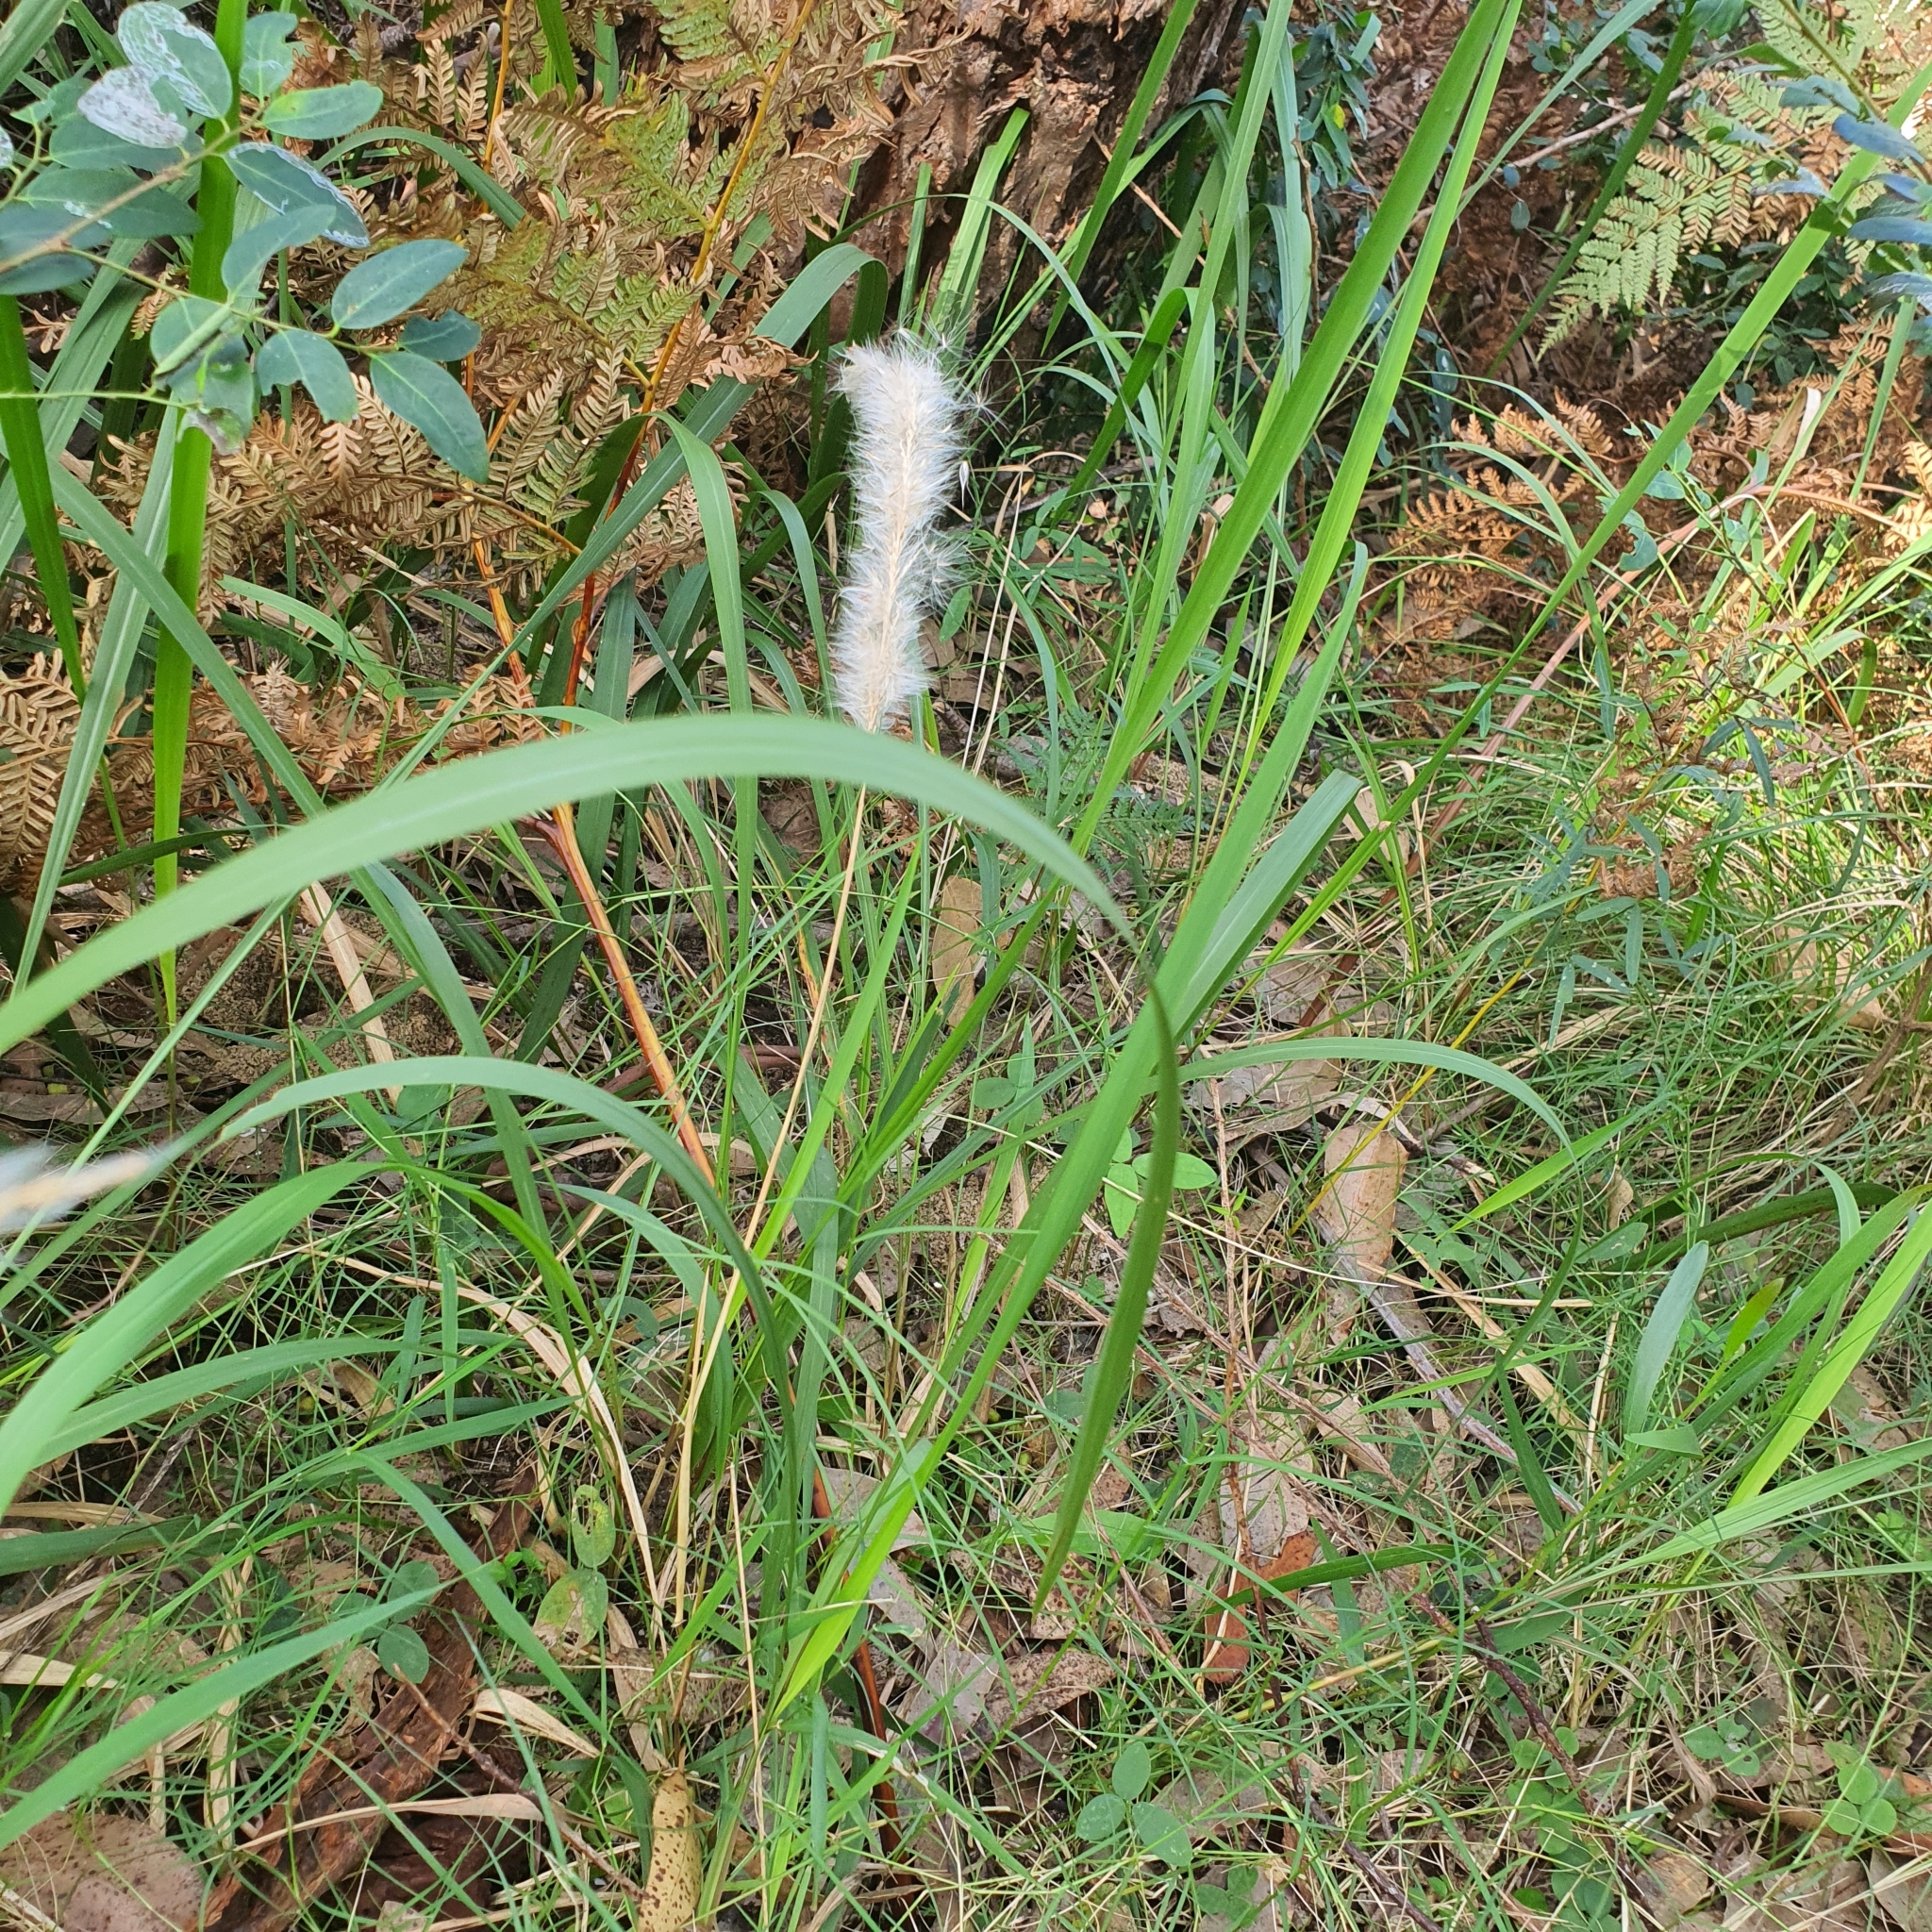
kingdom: Plantae
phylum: Tracheophyta
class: Liliopsida
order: Poales
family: Poaceae
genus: Imperata
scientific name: Imperata cylindrica
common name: Cogongrass
